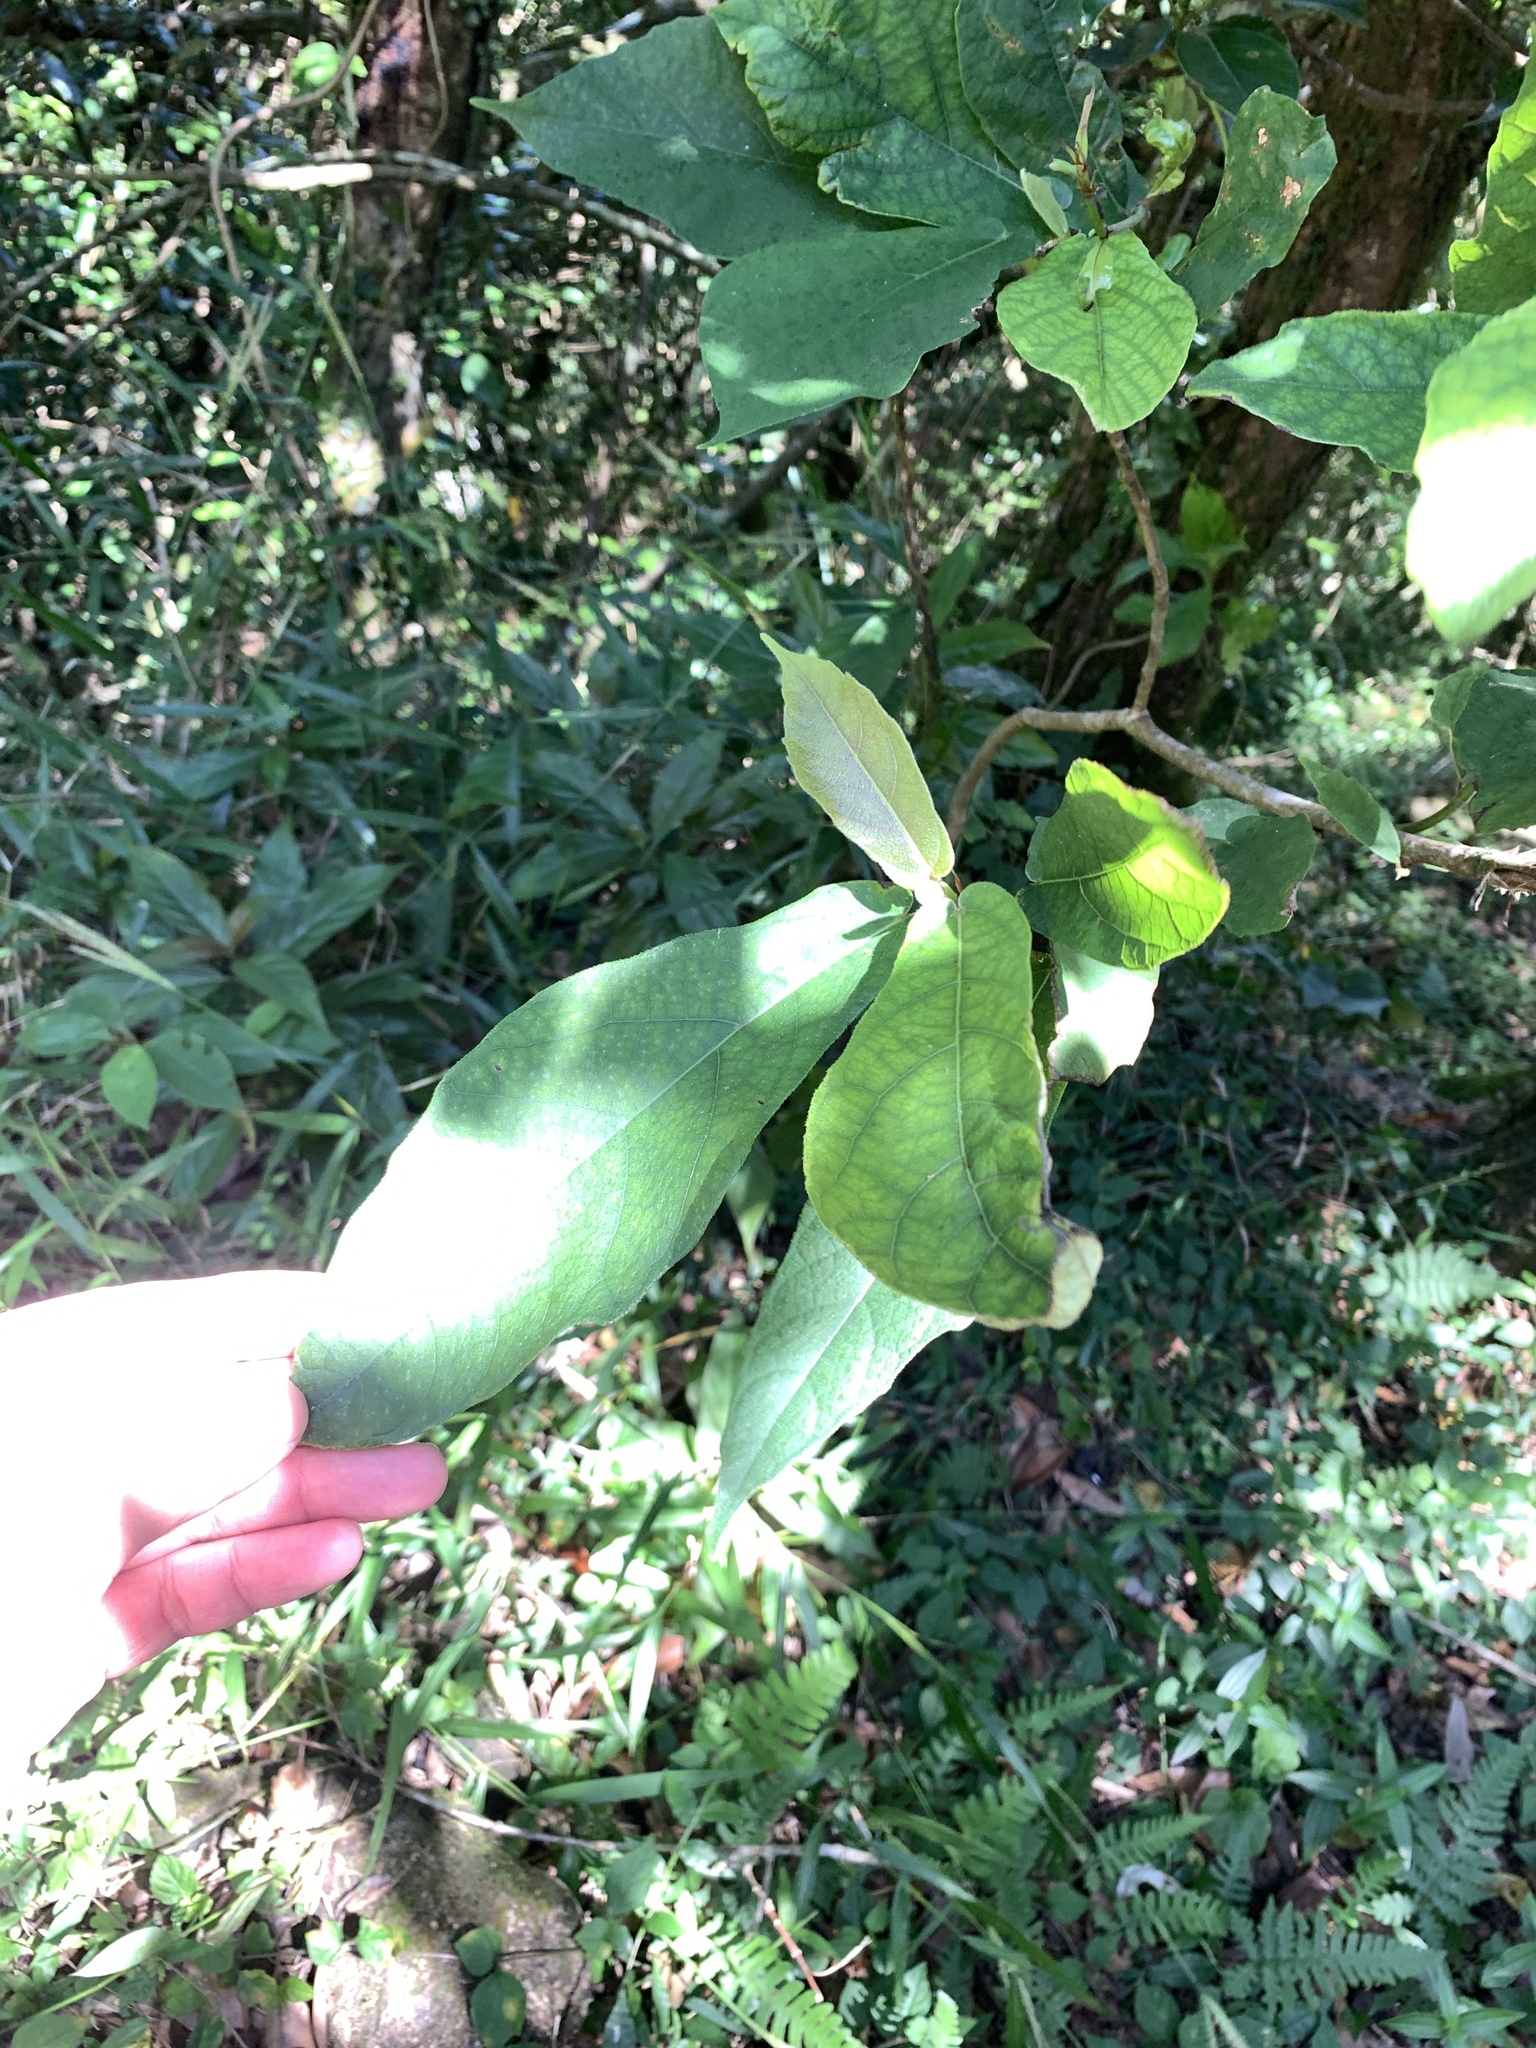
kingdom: Plantae
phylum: Tracheophyta
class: Magnoliopsida
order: Rosales
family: Moraceae
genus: Ficus
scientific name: Ficus erecta
